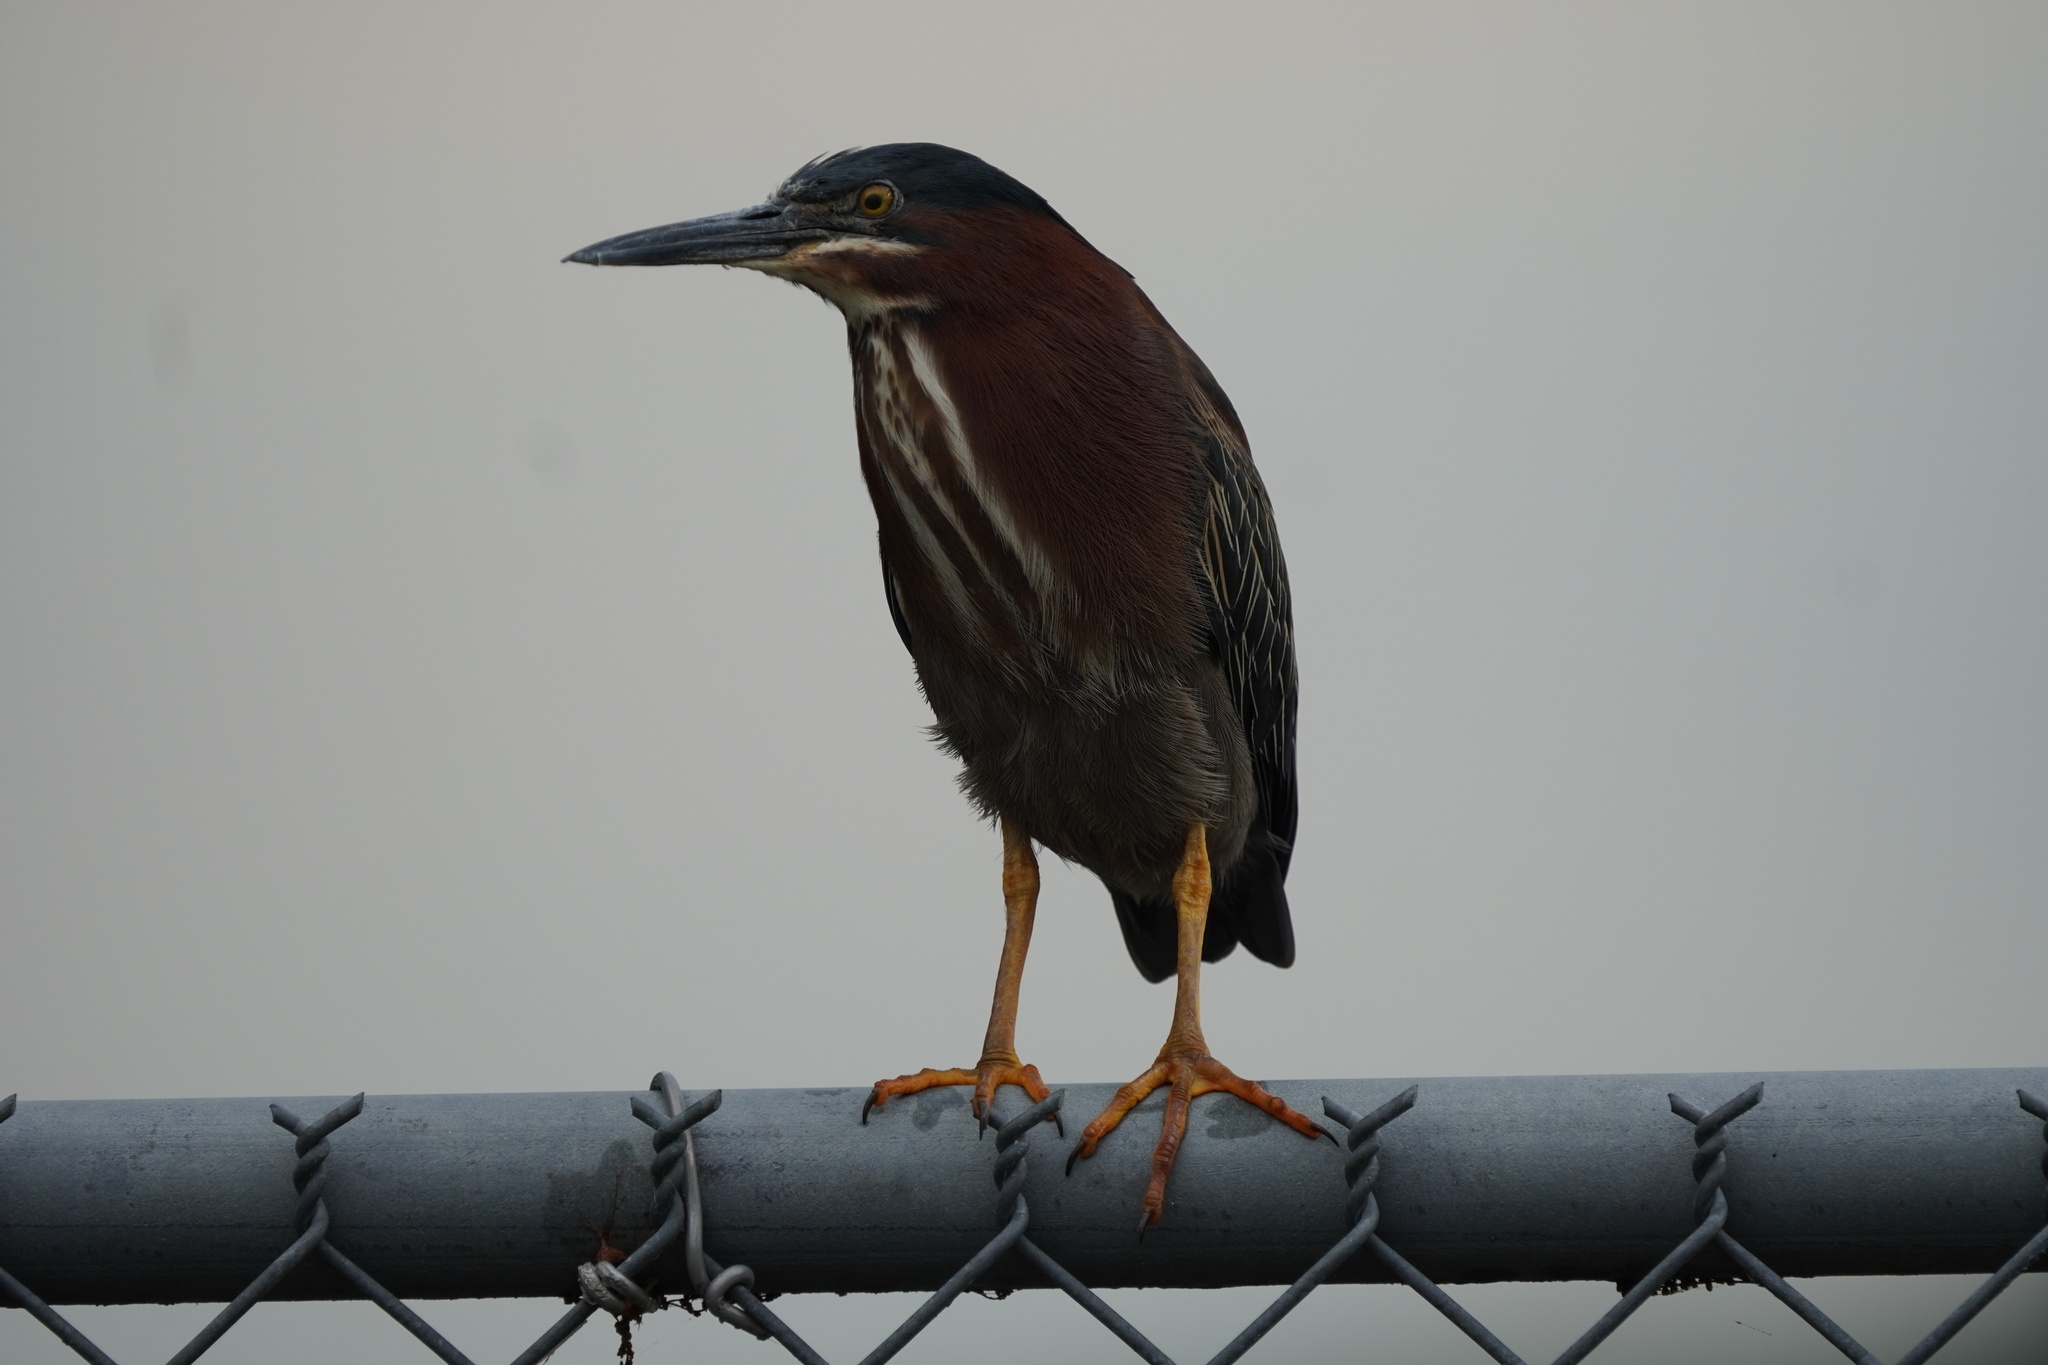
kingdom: Animalia
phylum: Chordata
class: Aves
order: Pelecaniformes
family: Ardeidae
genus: Butorides
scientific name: Butorides virescens
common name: Green heron
